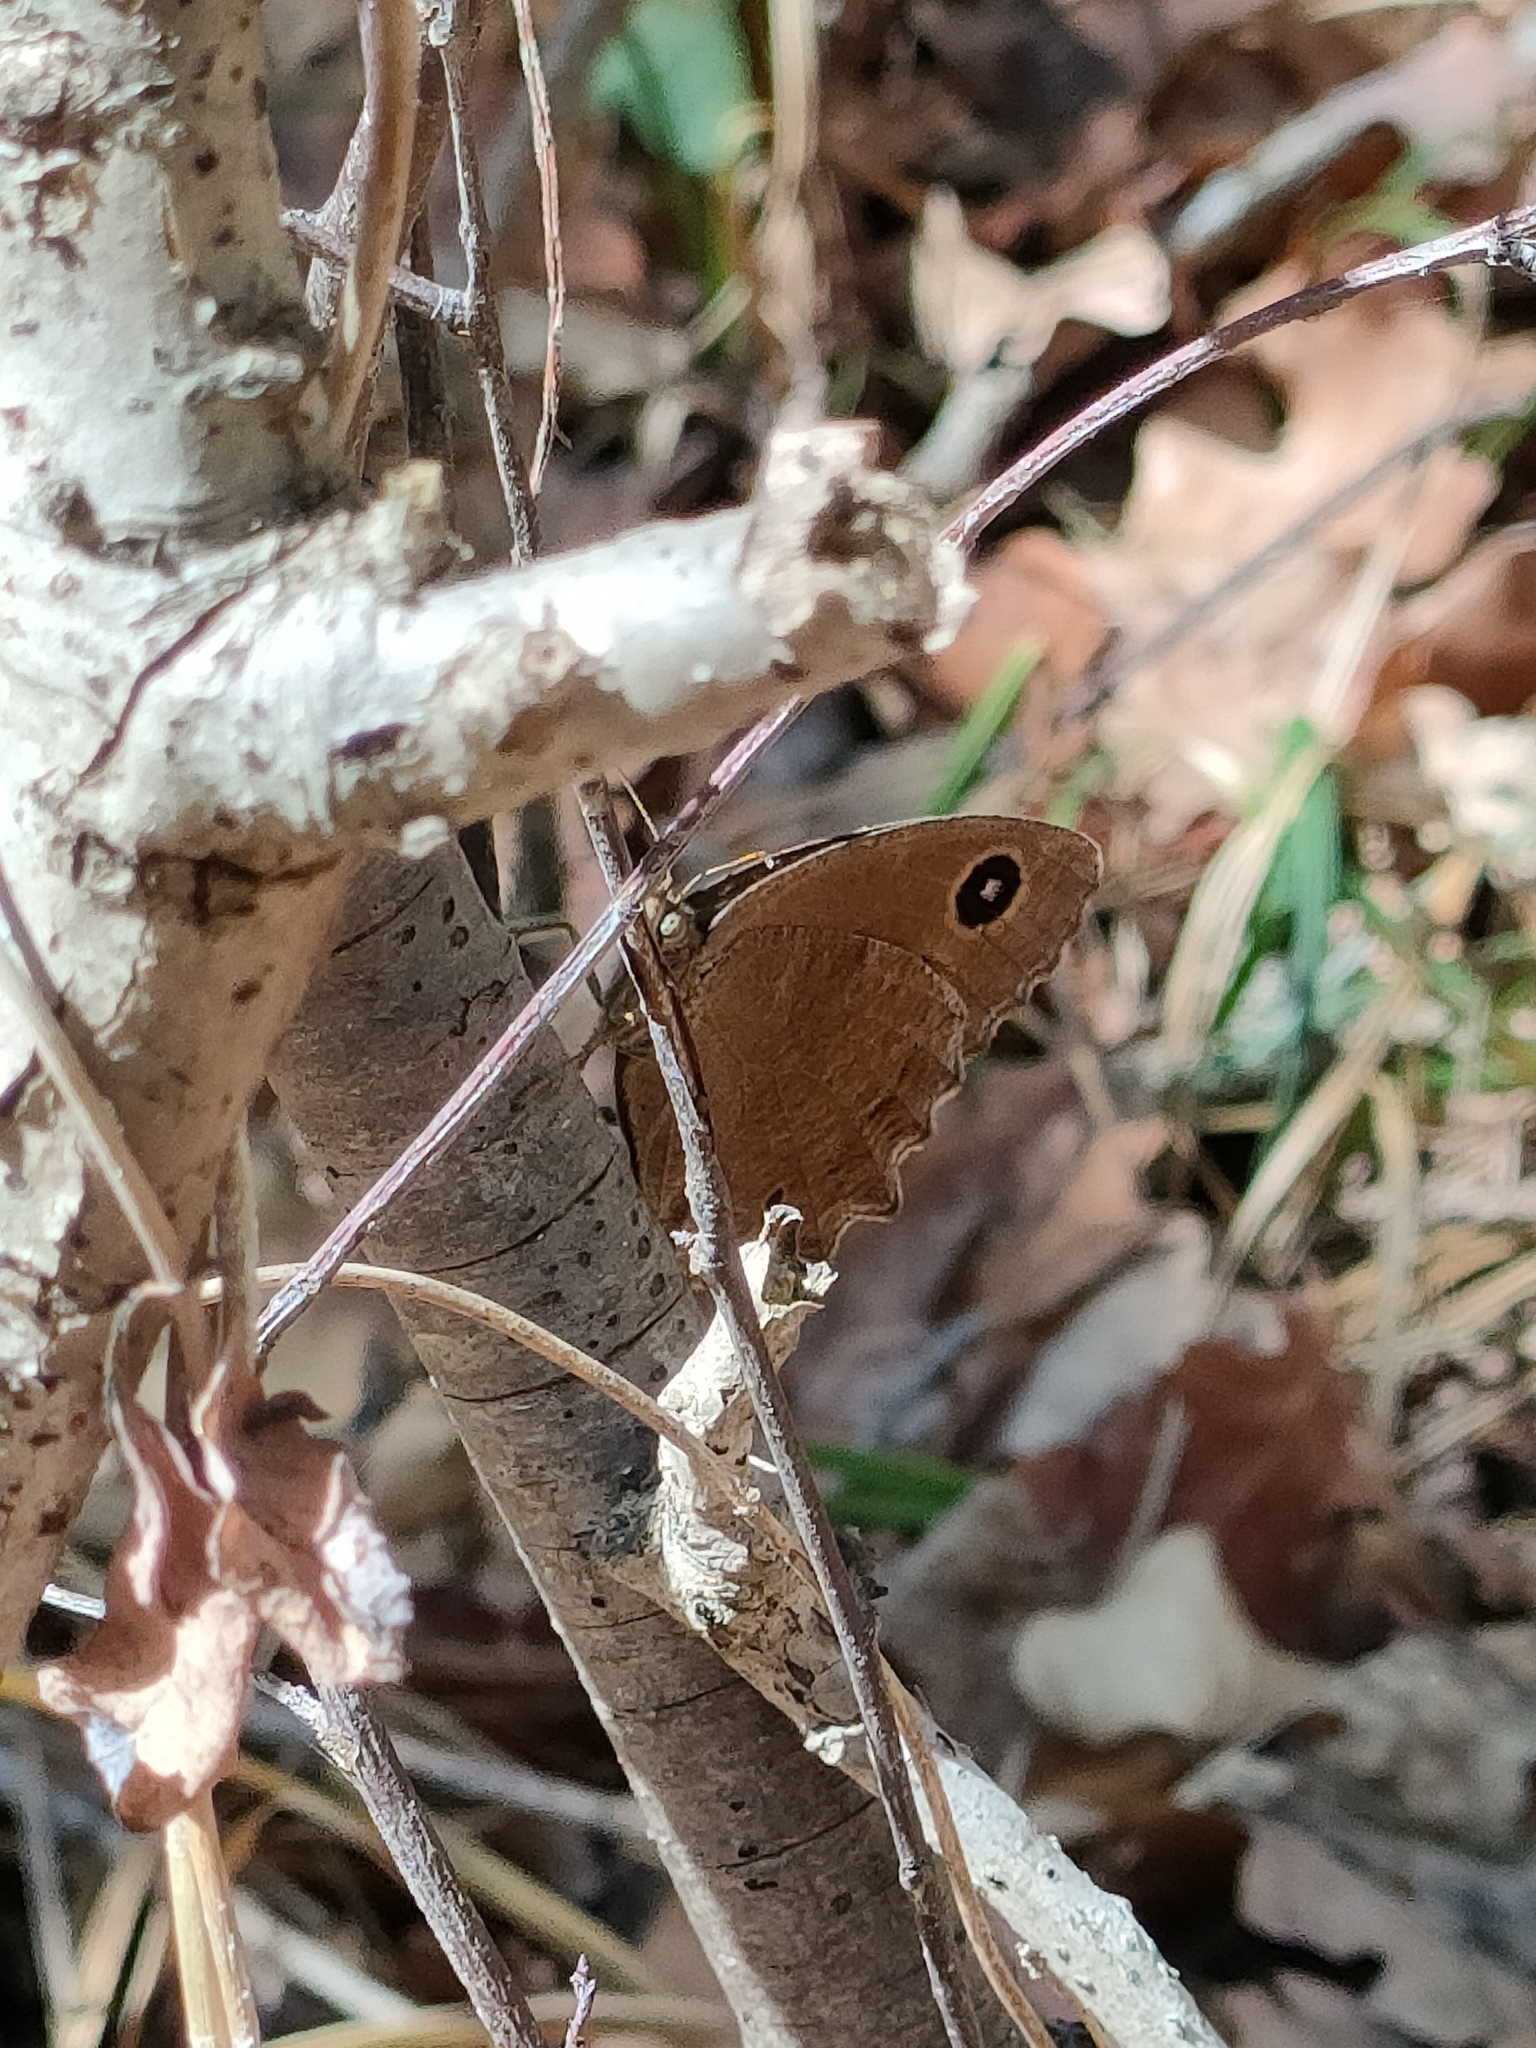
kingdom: Animalia
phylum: Arthropoda
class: Insecta
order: Lepidoptera
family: Nymphalidae
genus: Minois
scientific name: Minois dryas
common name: Dryad
